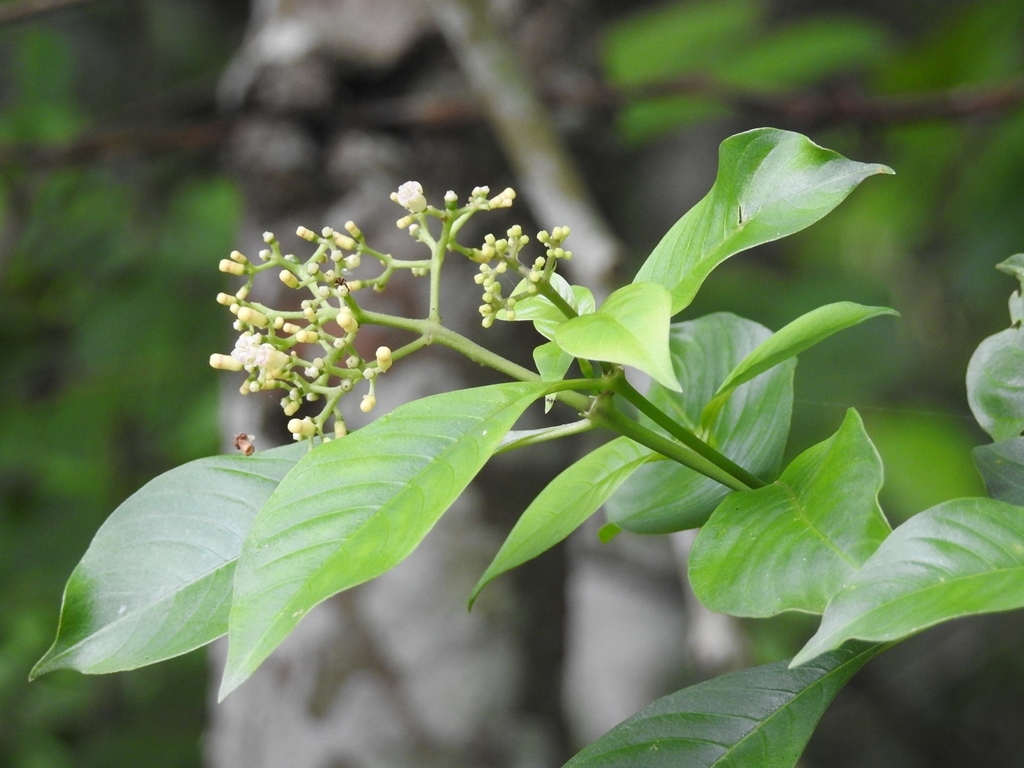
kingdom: Plantae
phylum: Tracheophyta
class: Magnoliopsida
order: Gentianales
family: Rubiaceae
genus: Palicourea
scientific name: Palicourea pubescens
